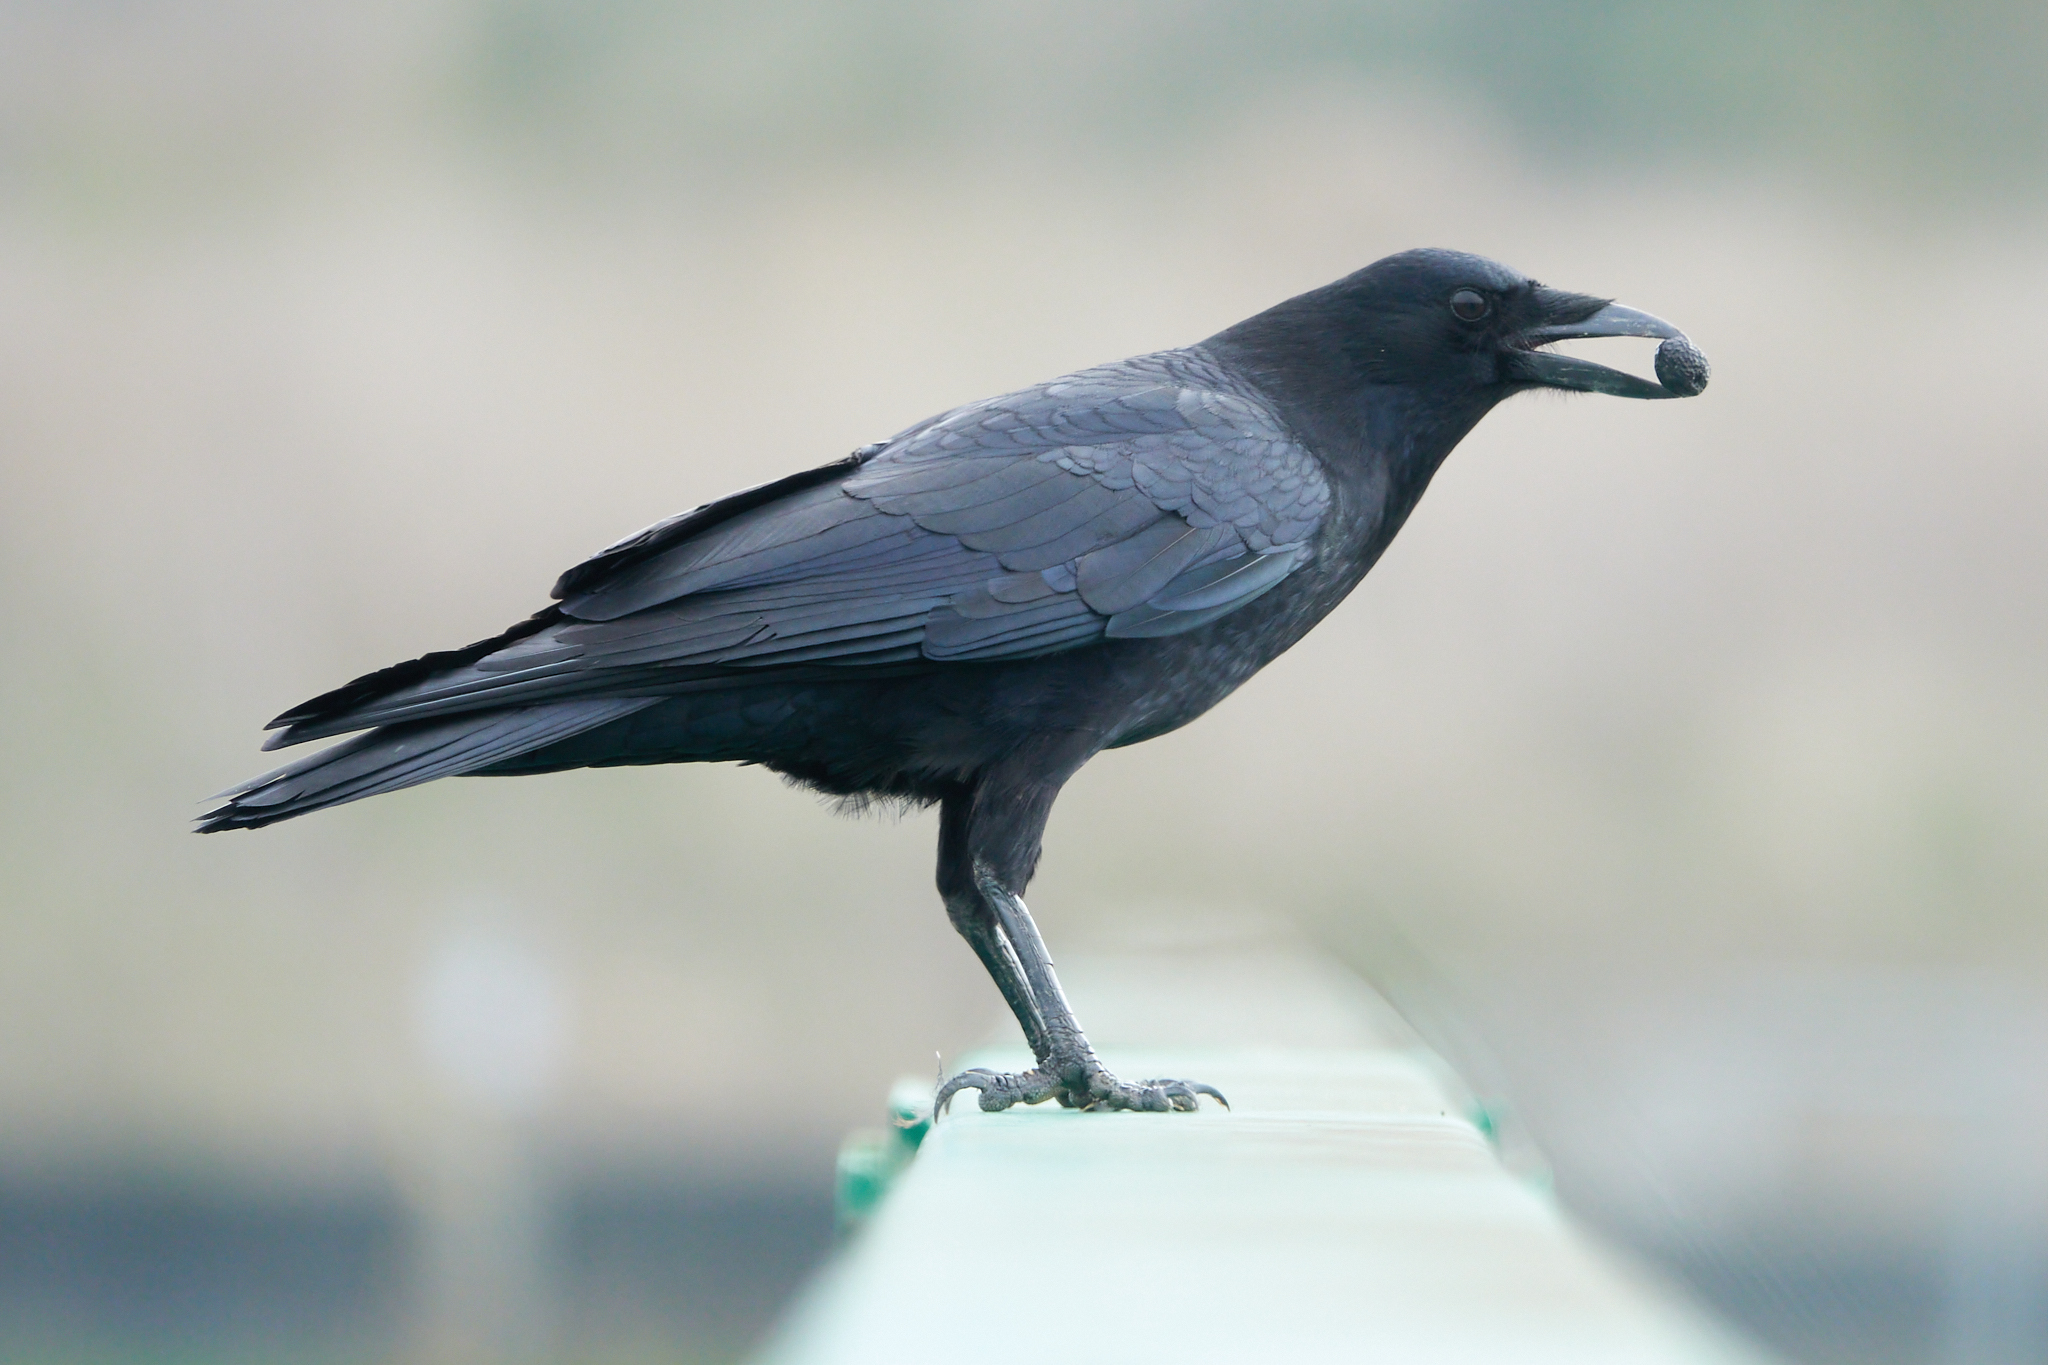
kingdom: Animalia
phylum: Chordata
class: Aves
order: Passeriformes
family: Corvidae
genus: Corvus
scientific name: Corvus brachyrhynchos
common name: American crow
